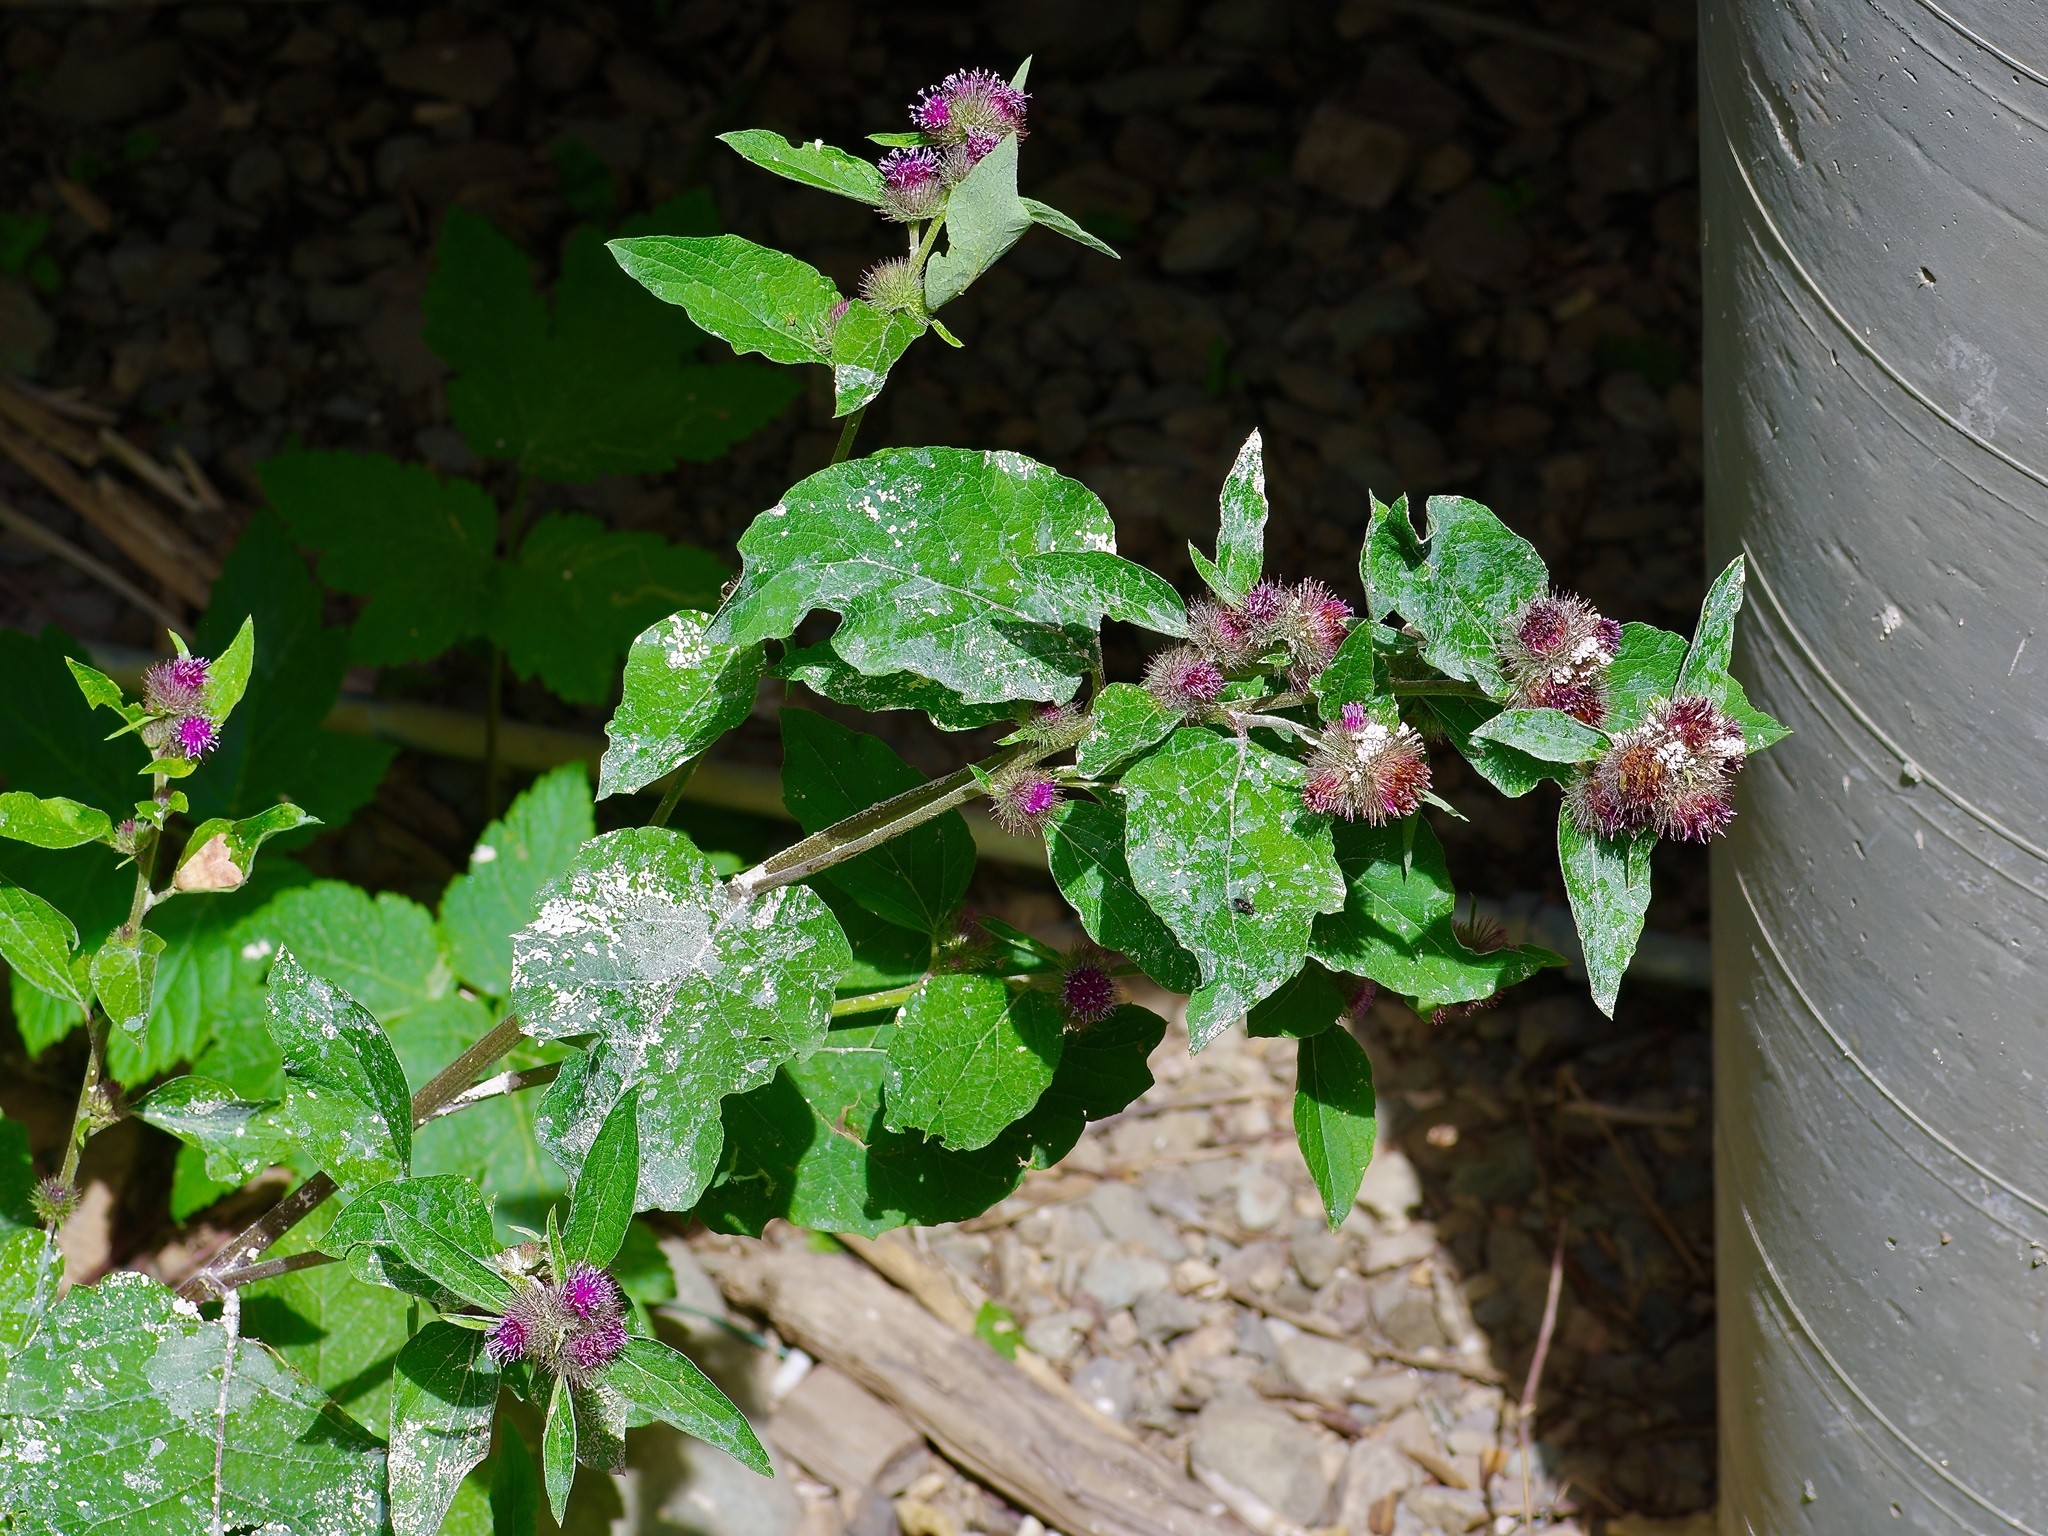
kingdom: Plantae
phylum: Tracheophyta
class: Magnoliopsida
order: Asterales
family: Asteraceae
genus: Arctium
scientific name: Arctium minus
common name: Lesser burdock
